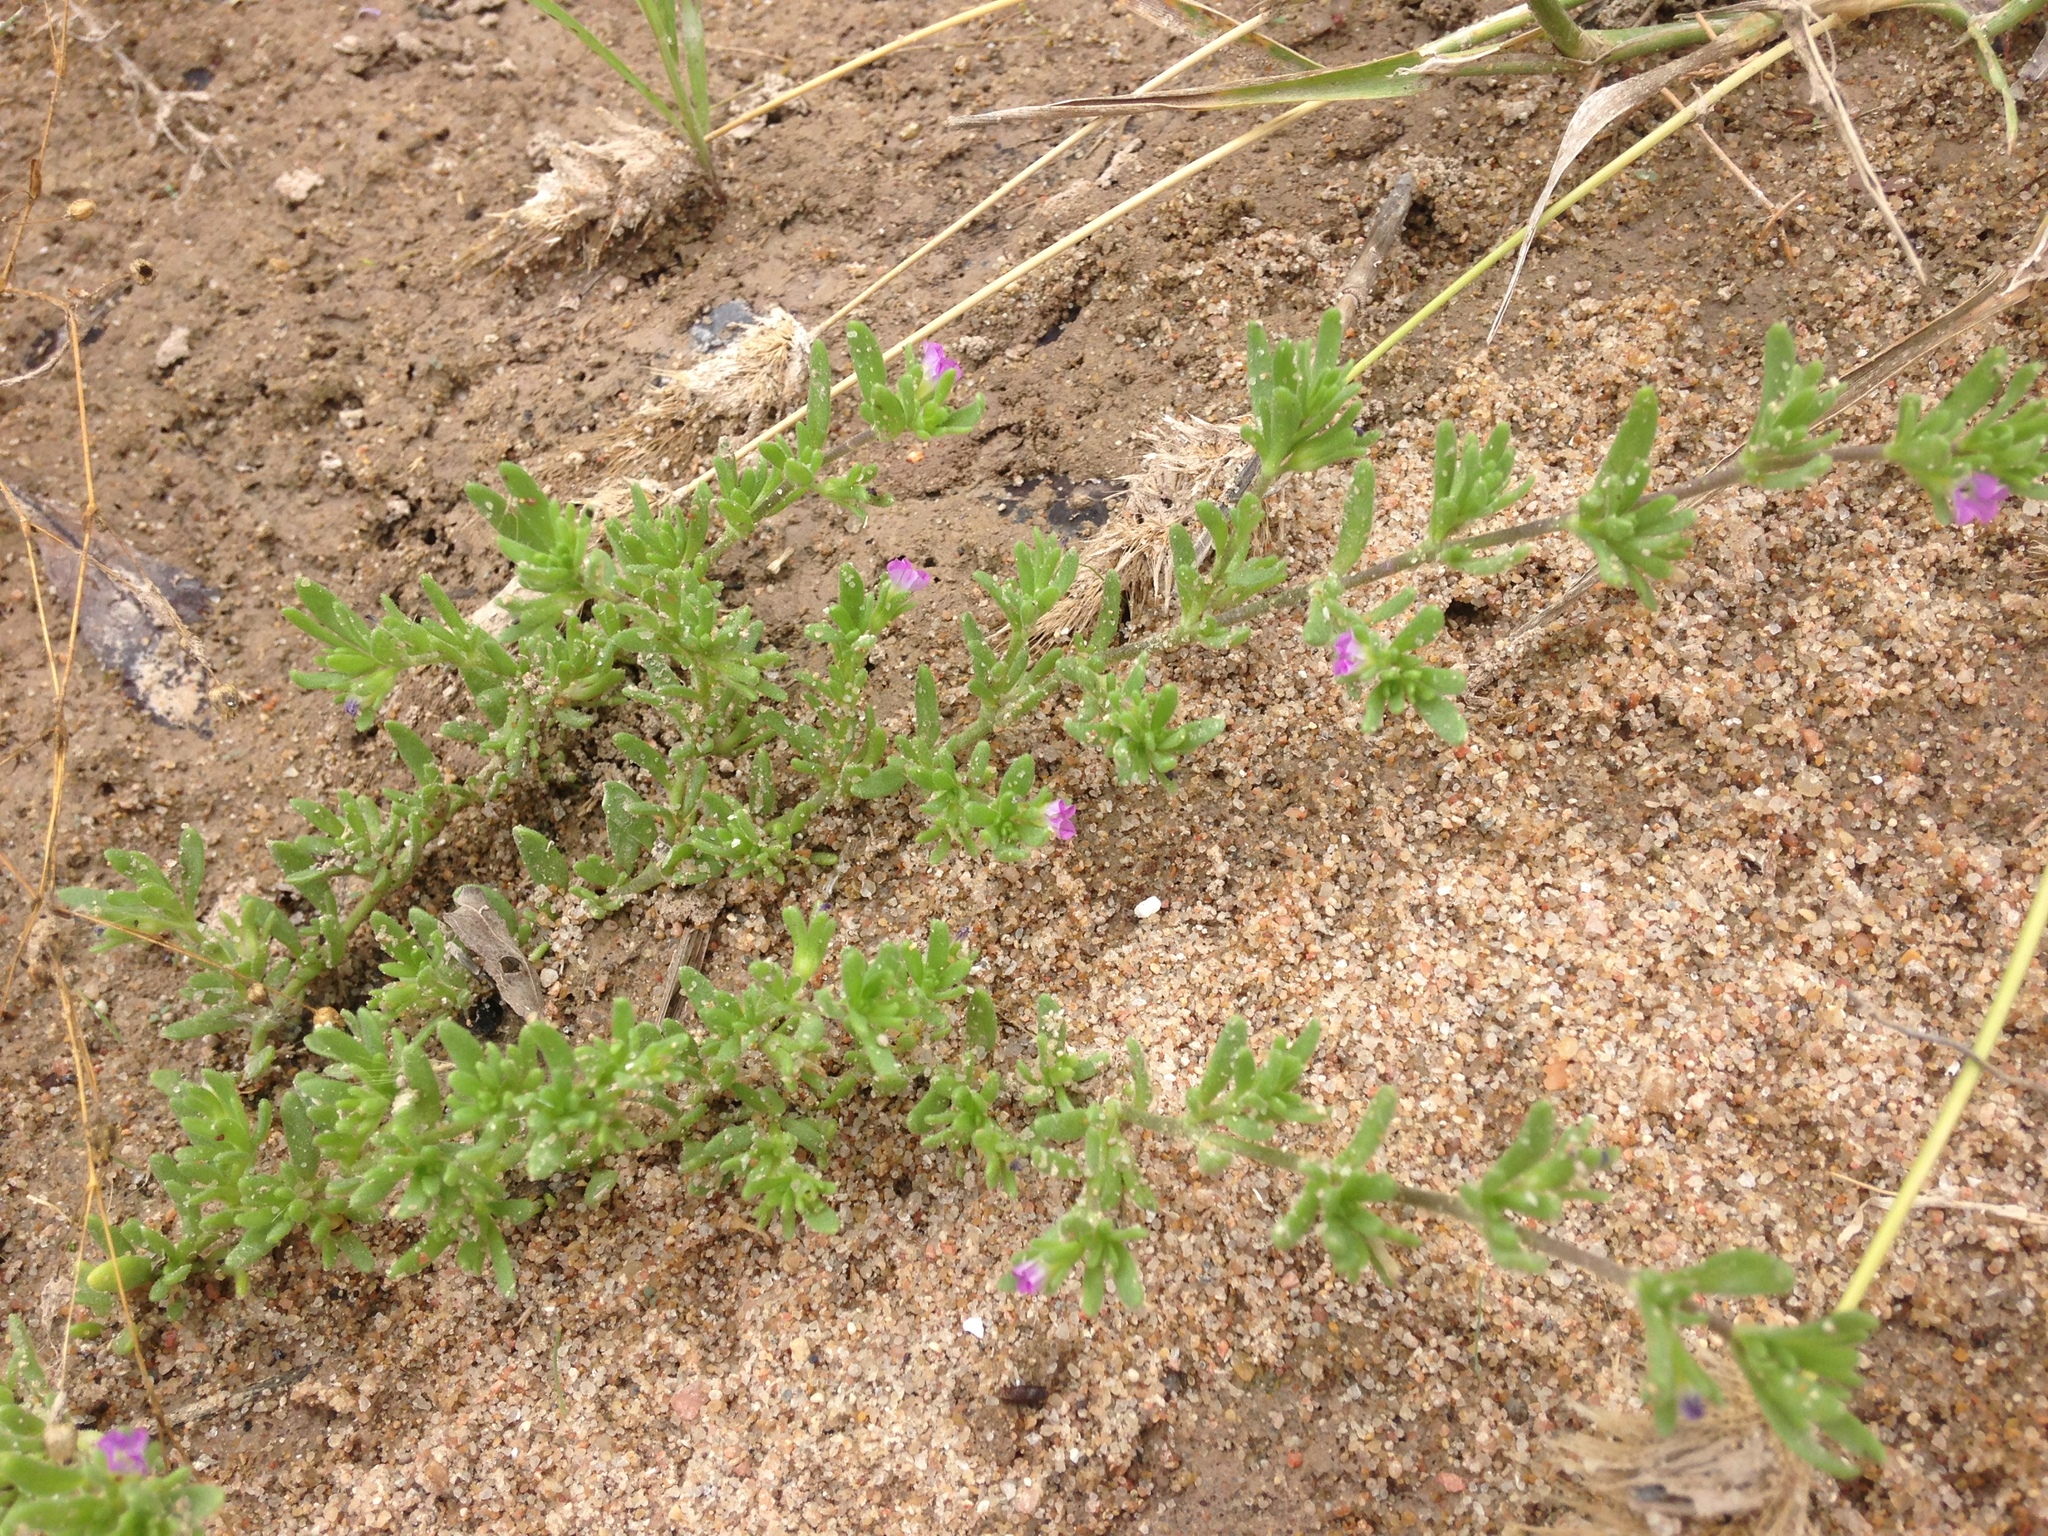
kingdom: Plantae
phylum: Tracheophyta
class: Magnoliopsida
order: Solanales
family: Solanaceae
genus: Calibrachoa
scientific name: Calibrachoa parviflora
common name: Seaside petunia
